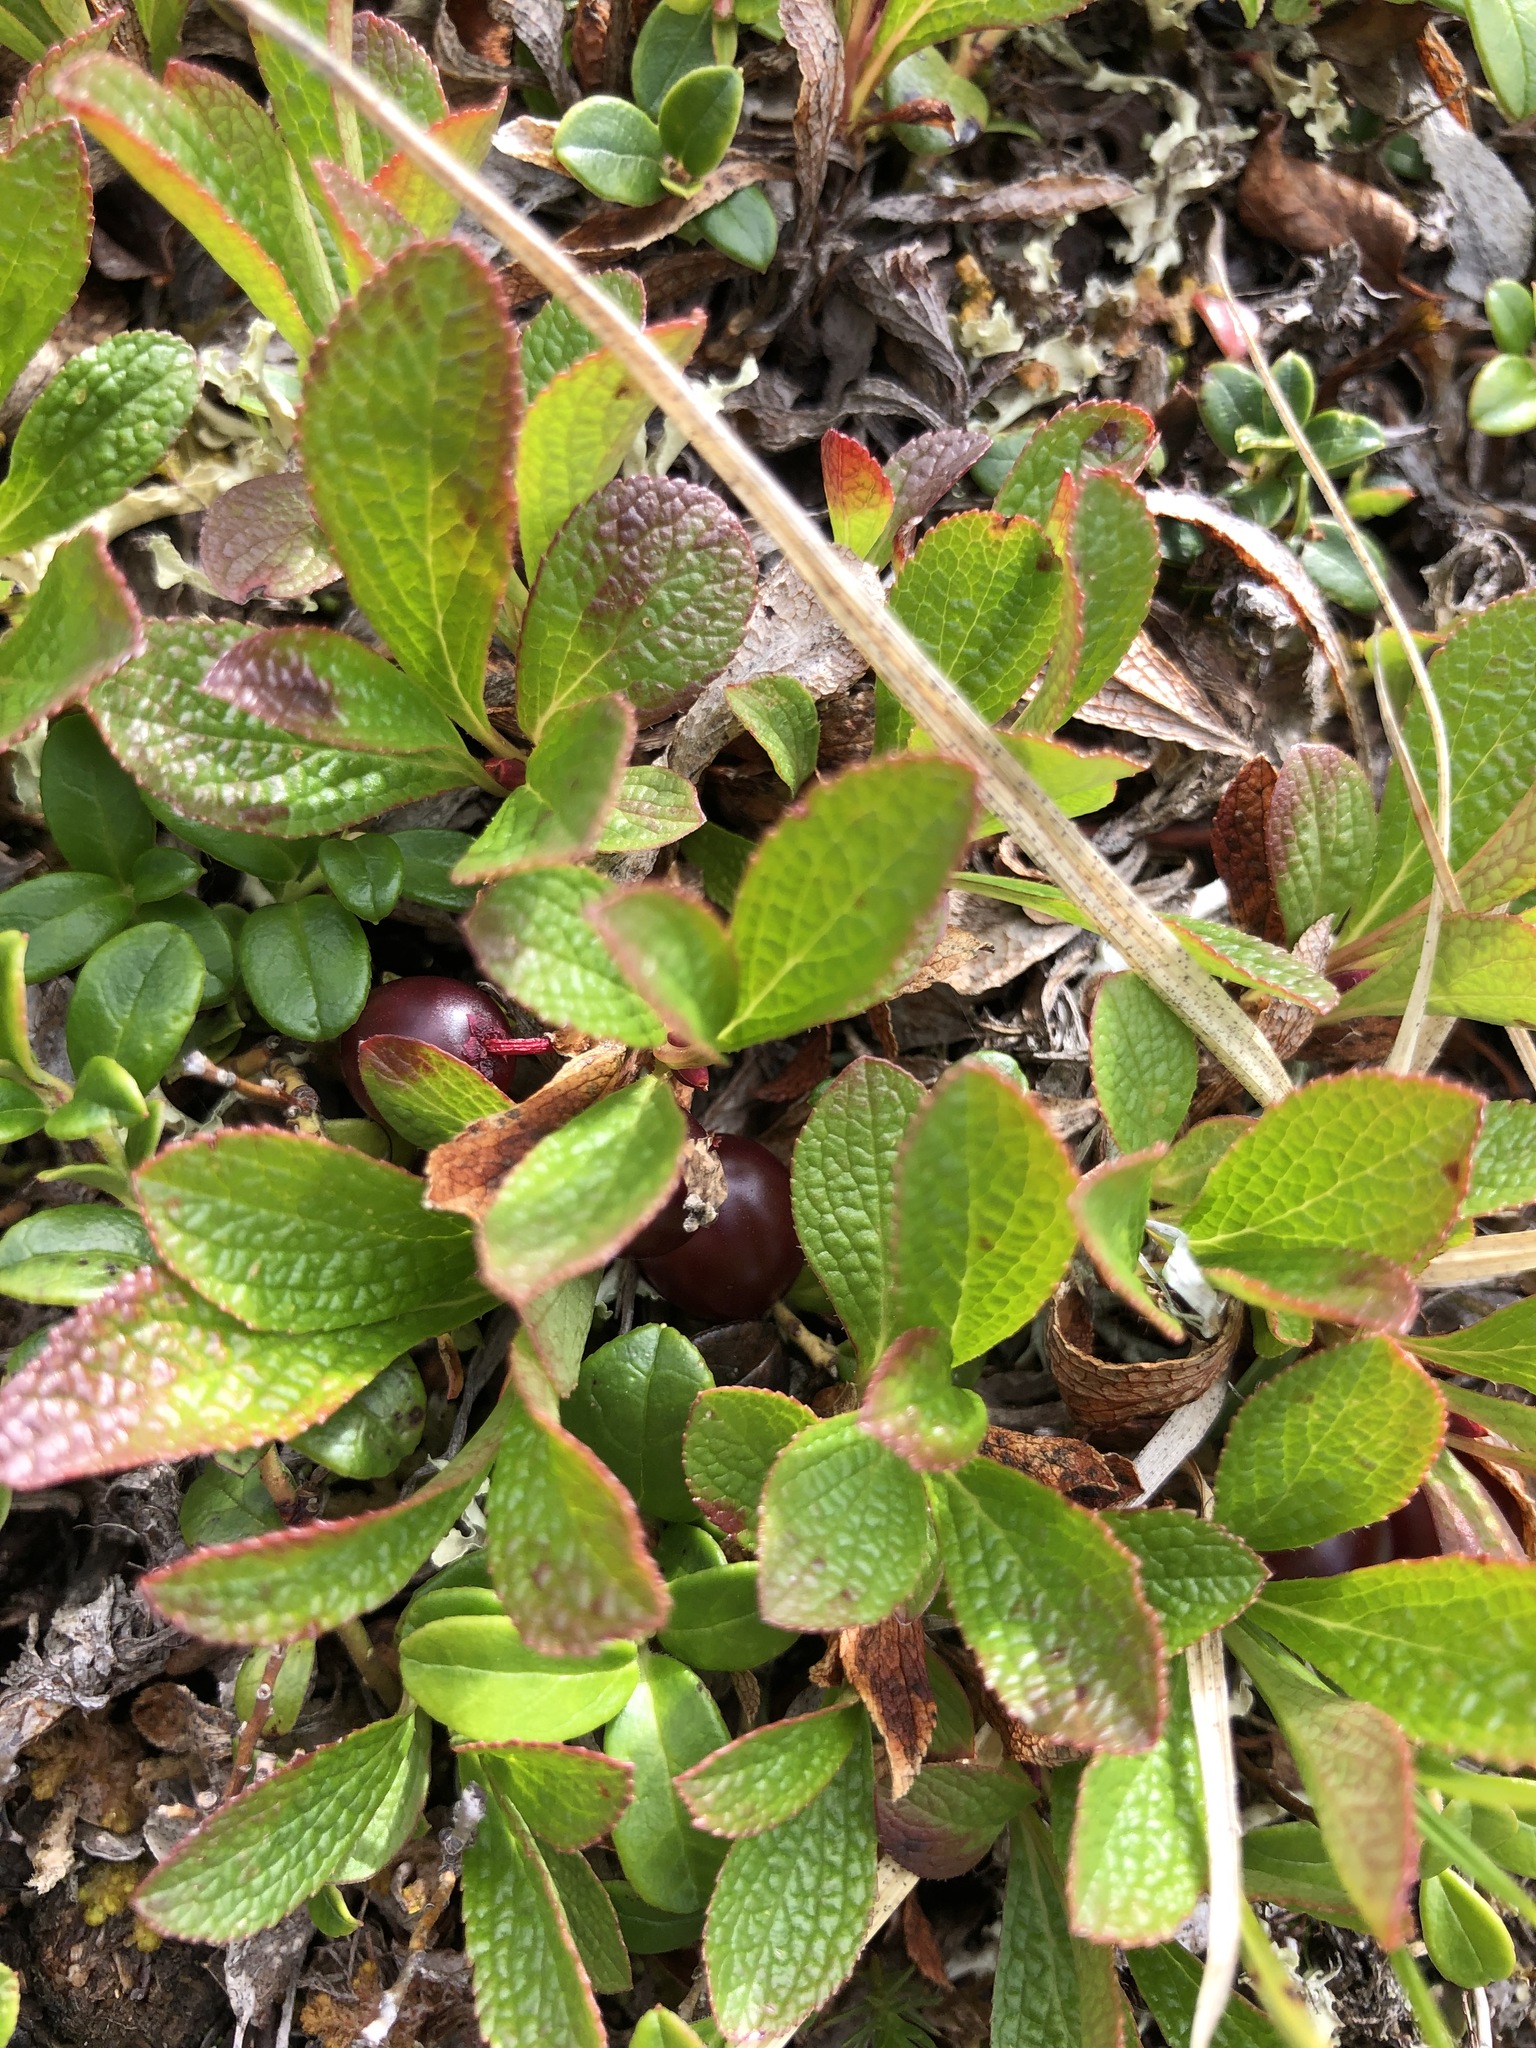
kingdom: Plantae
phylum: Tracheophyta
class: Magnoliopsida
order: Ericales
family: Ericaceae
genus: Arctostaphylos
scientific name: Arctostaphylos alpinus
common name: Alpine bearberry
